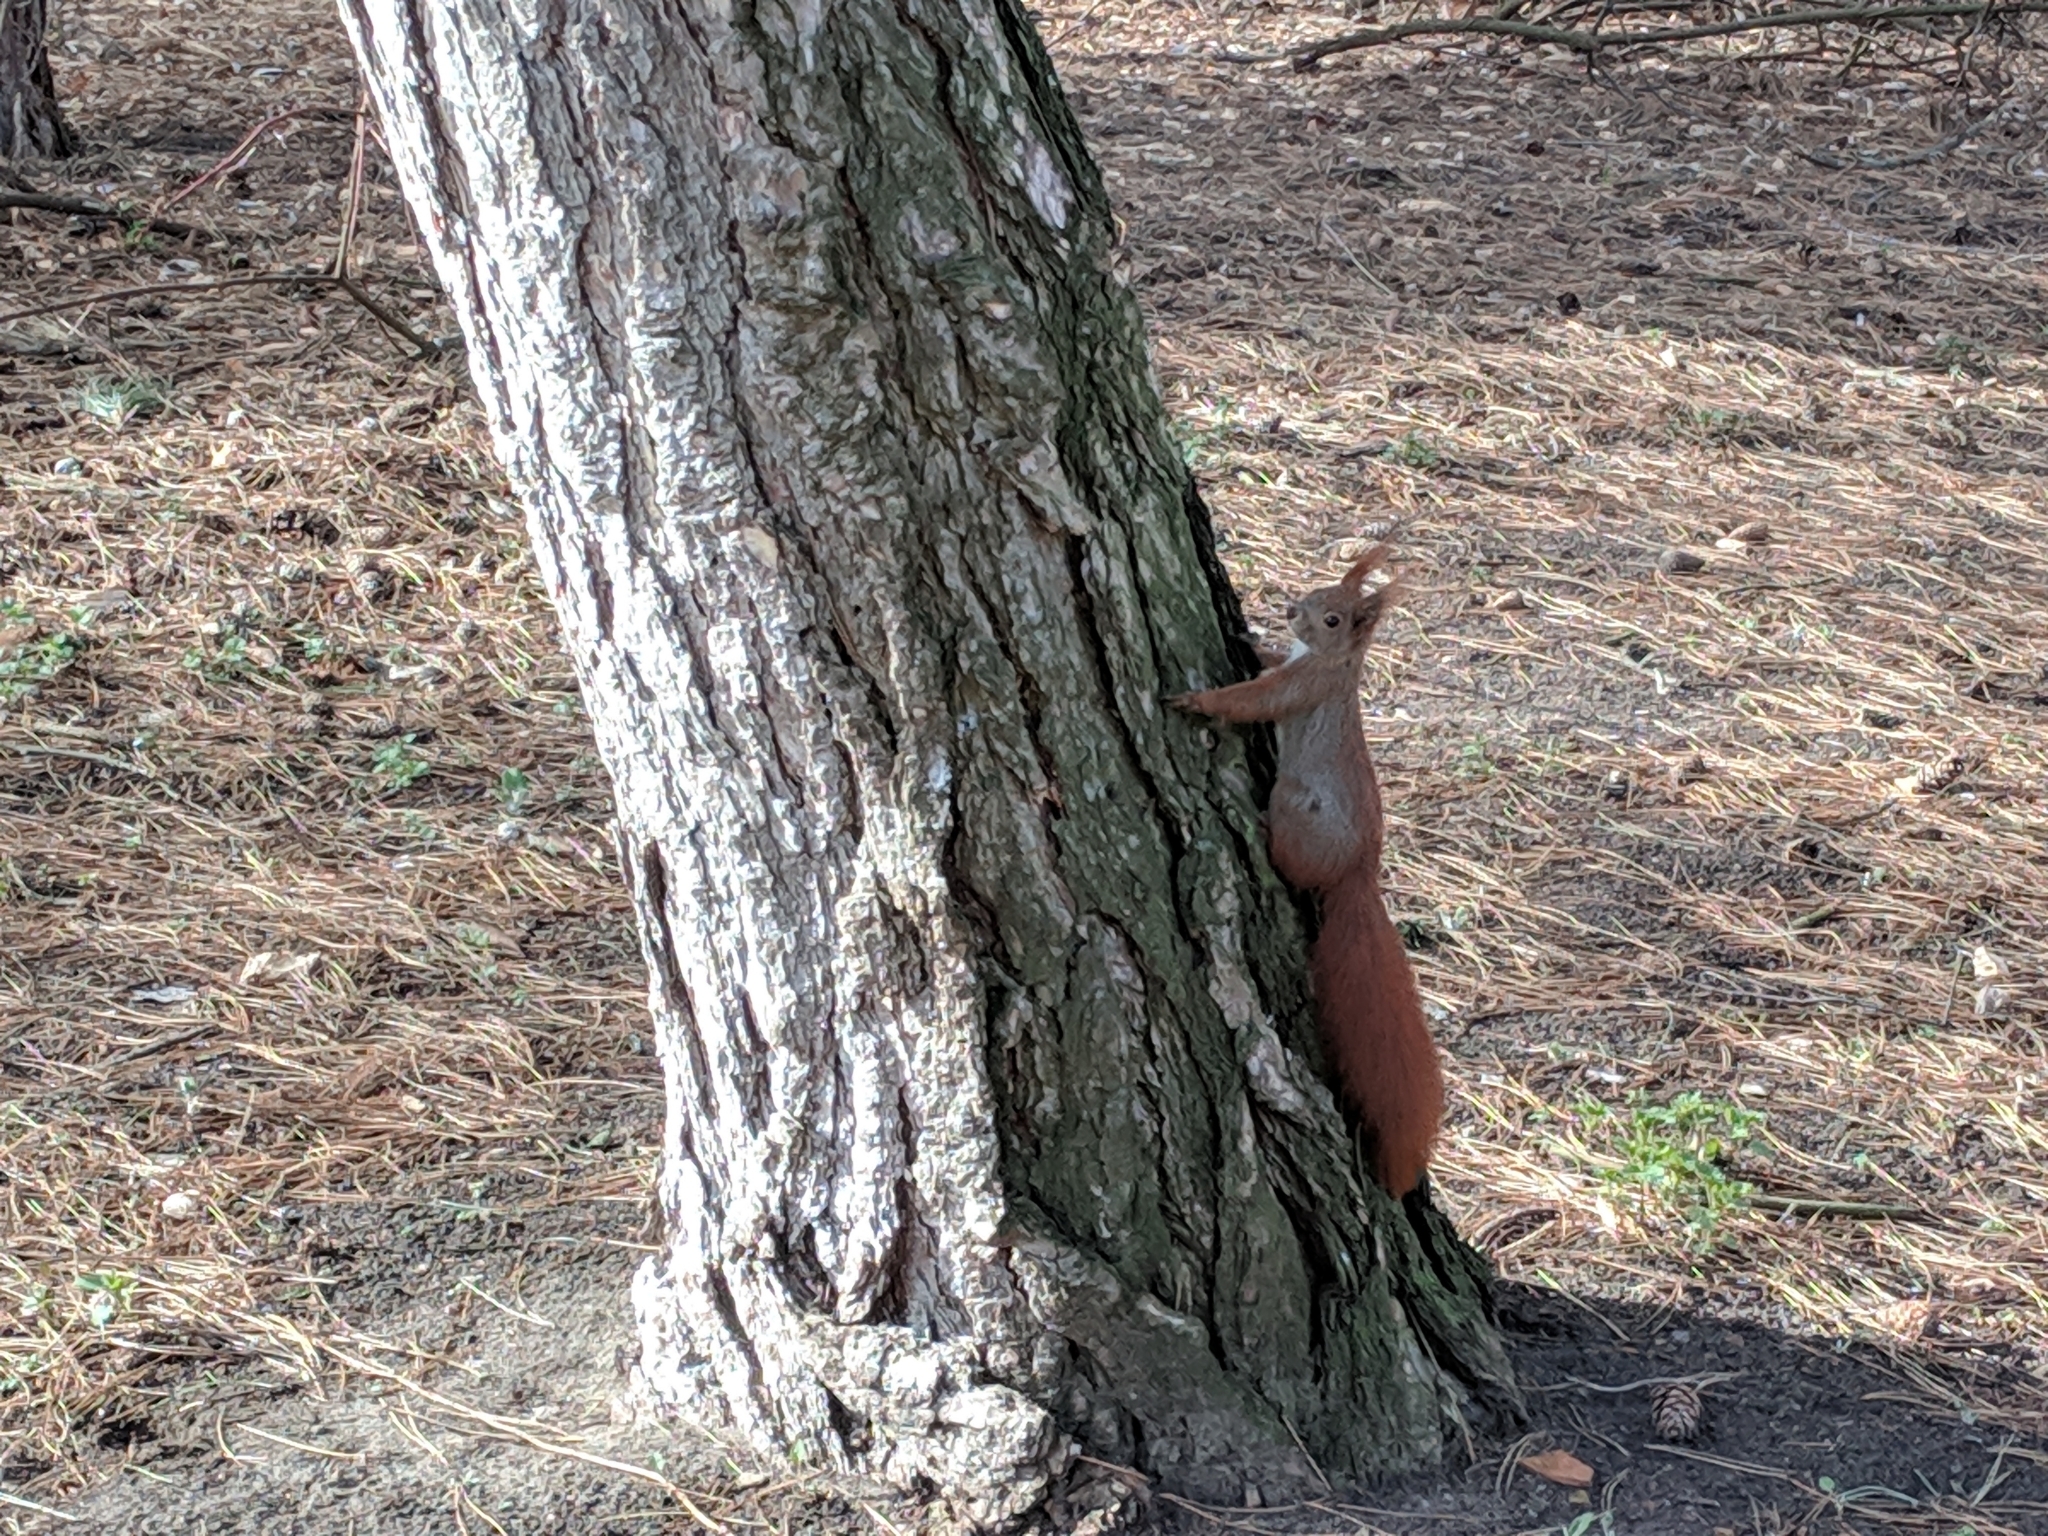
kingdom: Animalia
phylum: Chordata
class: Mammalia
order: Rodentia
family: Sciuridae
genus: Sciurus
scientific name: Sciurus vulgaris
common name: Eurasian red squirrel
